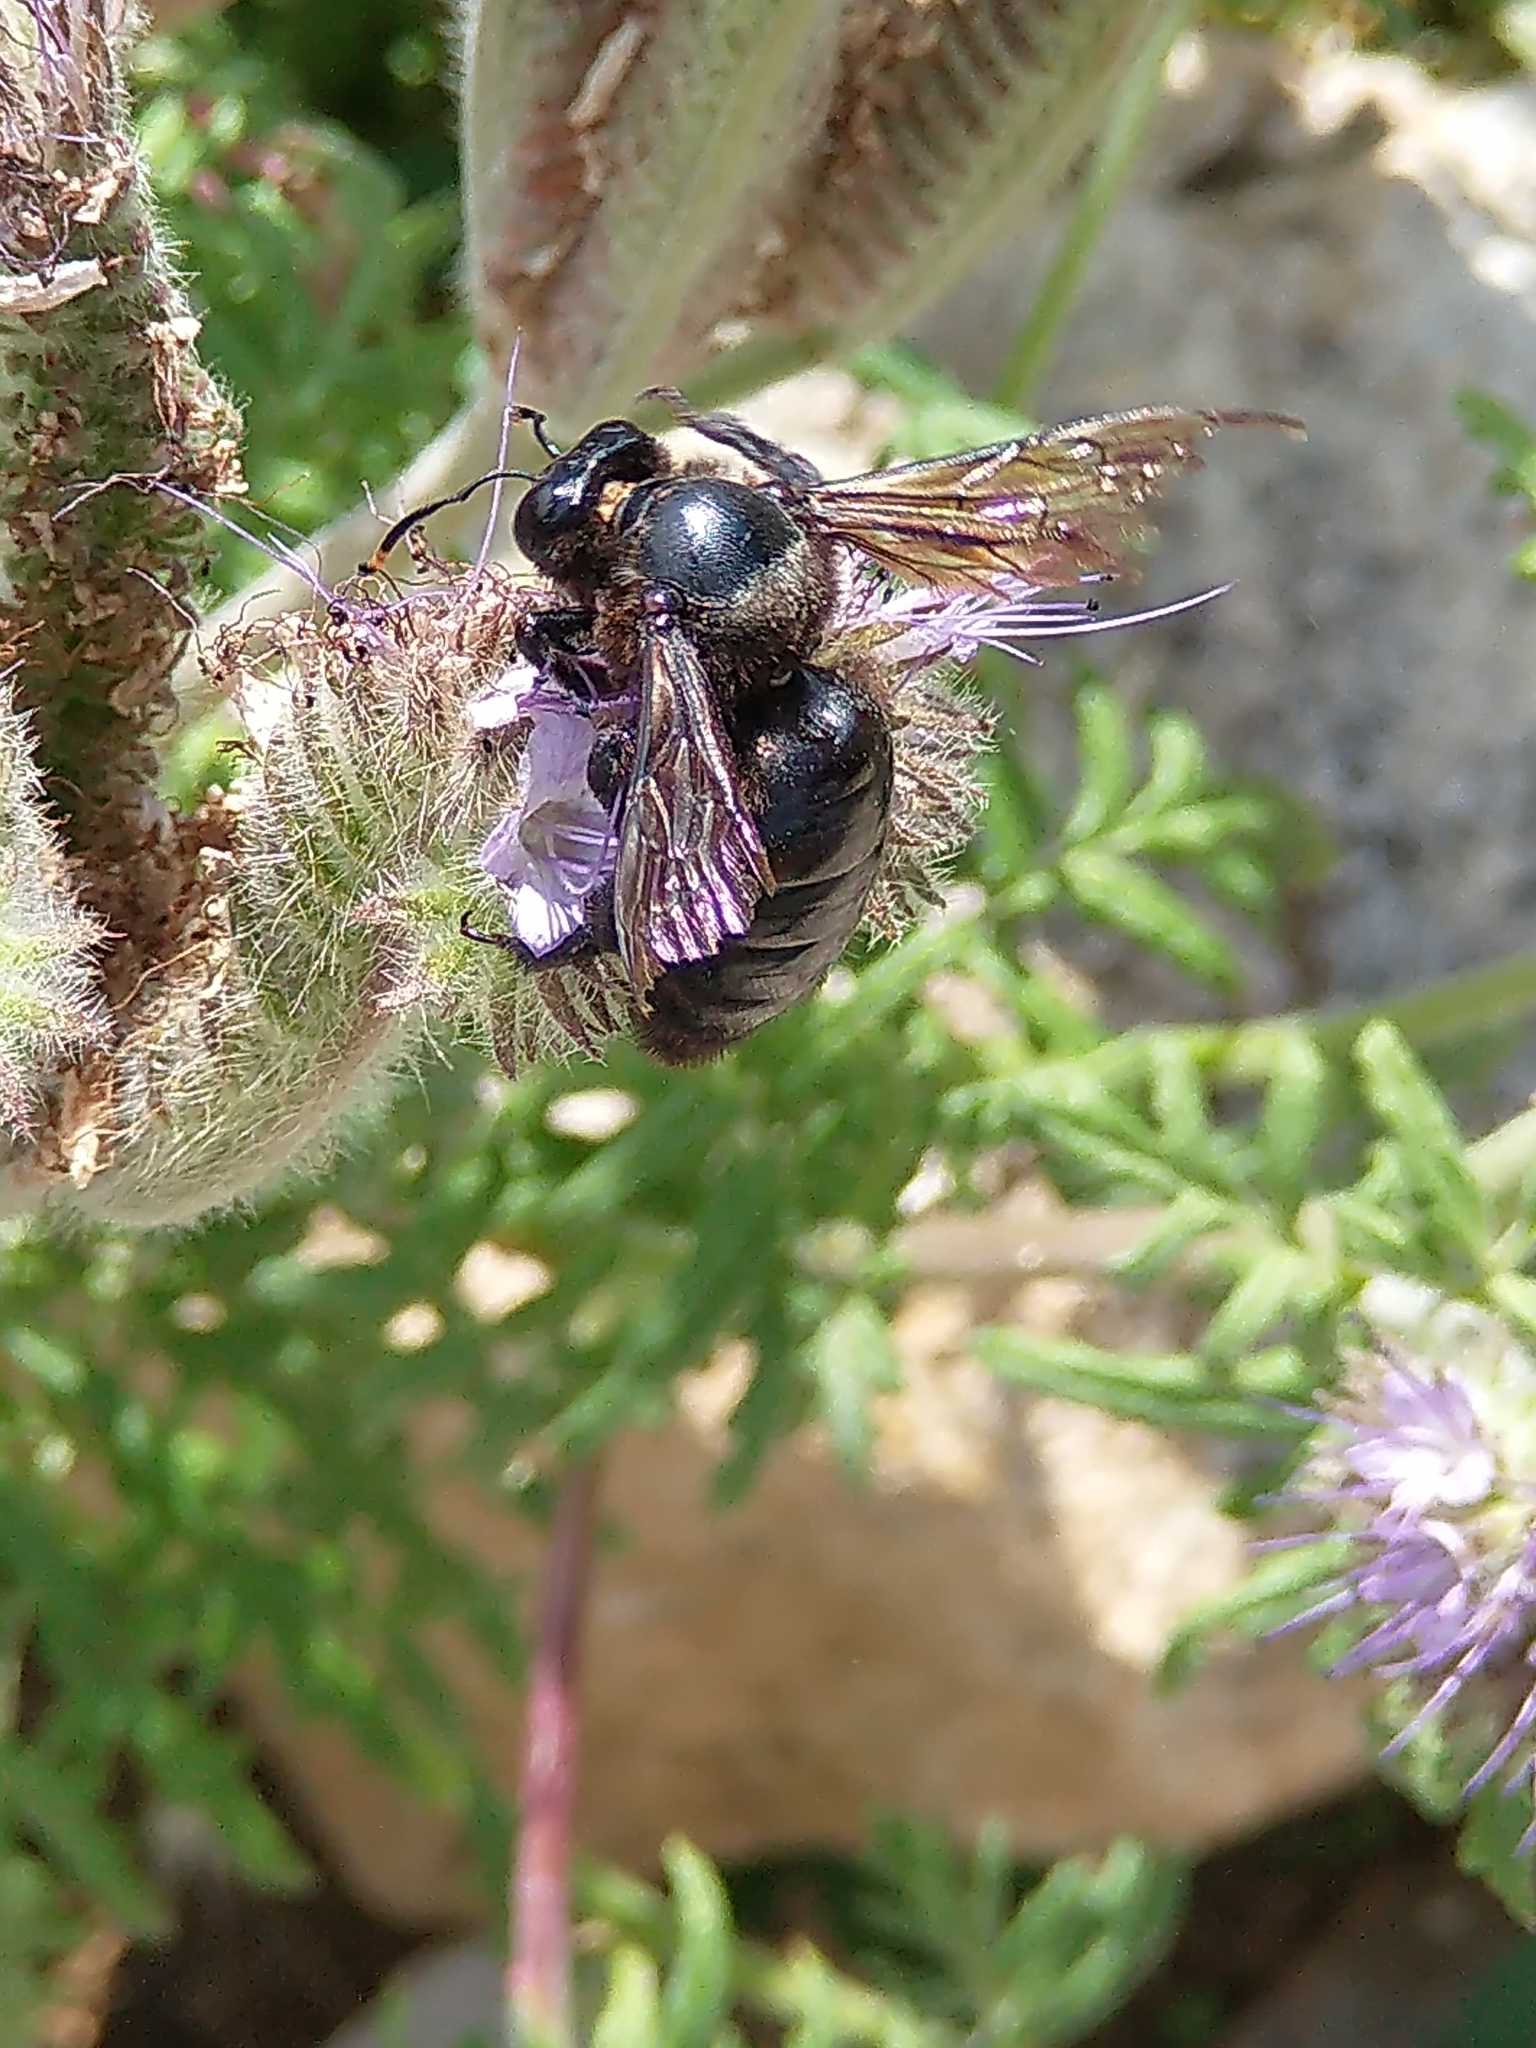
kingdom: Animalia
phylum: Arthropoda
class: Insecta
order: Hymenoptera
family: Apidae
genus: Xylocopa
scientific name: Xylocopa violacea
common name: Violet carpenter bee
